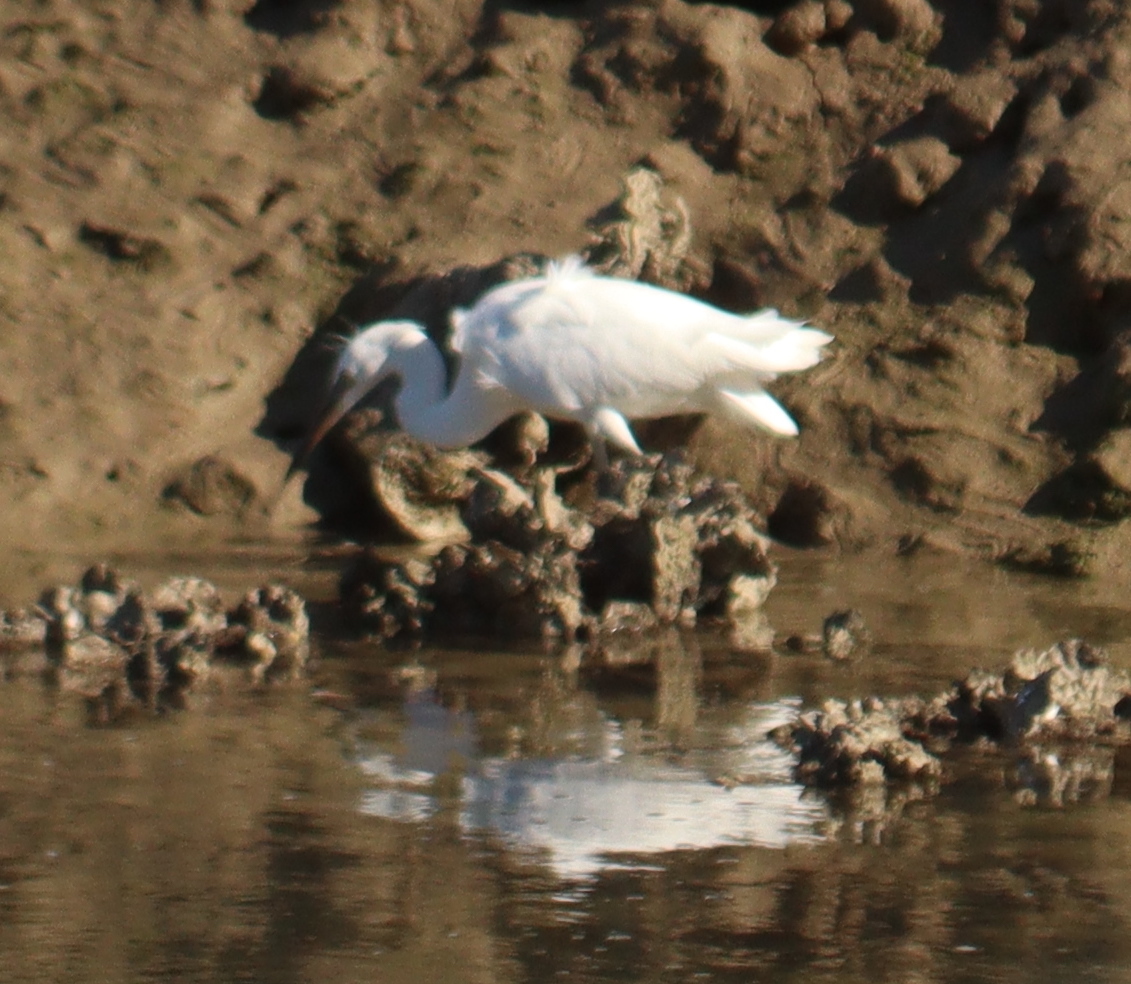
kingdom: Animalia
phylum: Chordata
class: Aves
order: Pelecaniformes
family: Ardeidae
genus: Egretta
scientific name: Egretta garzetta
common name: Little egret
